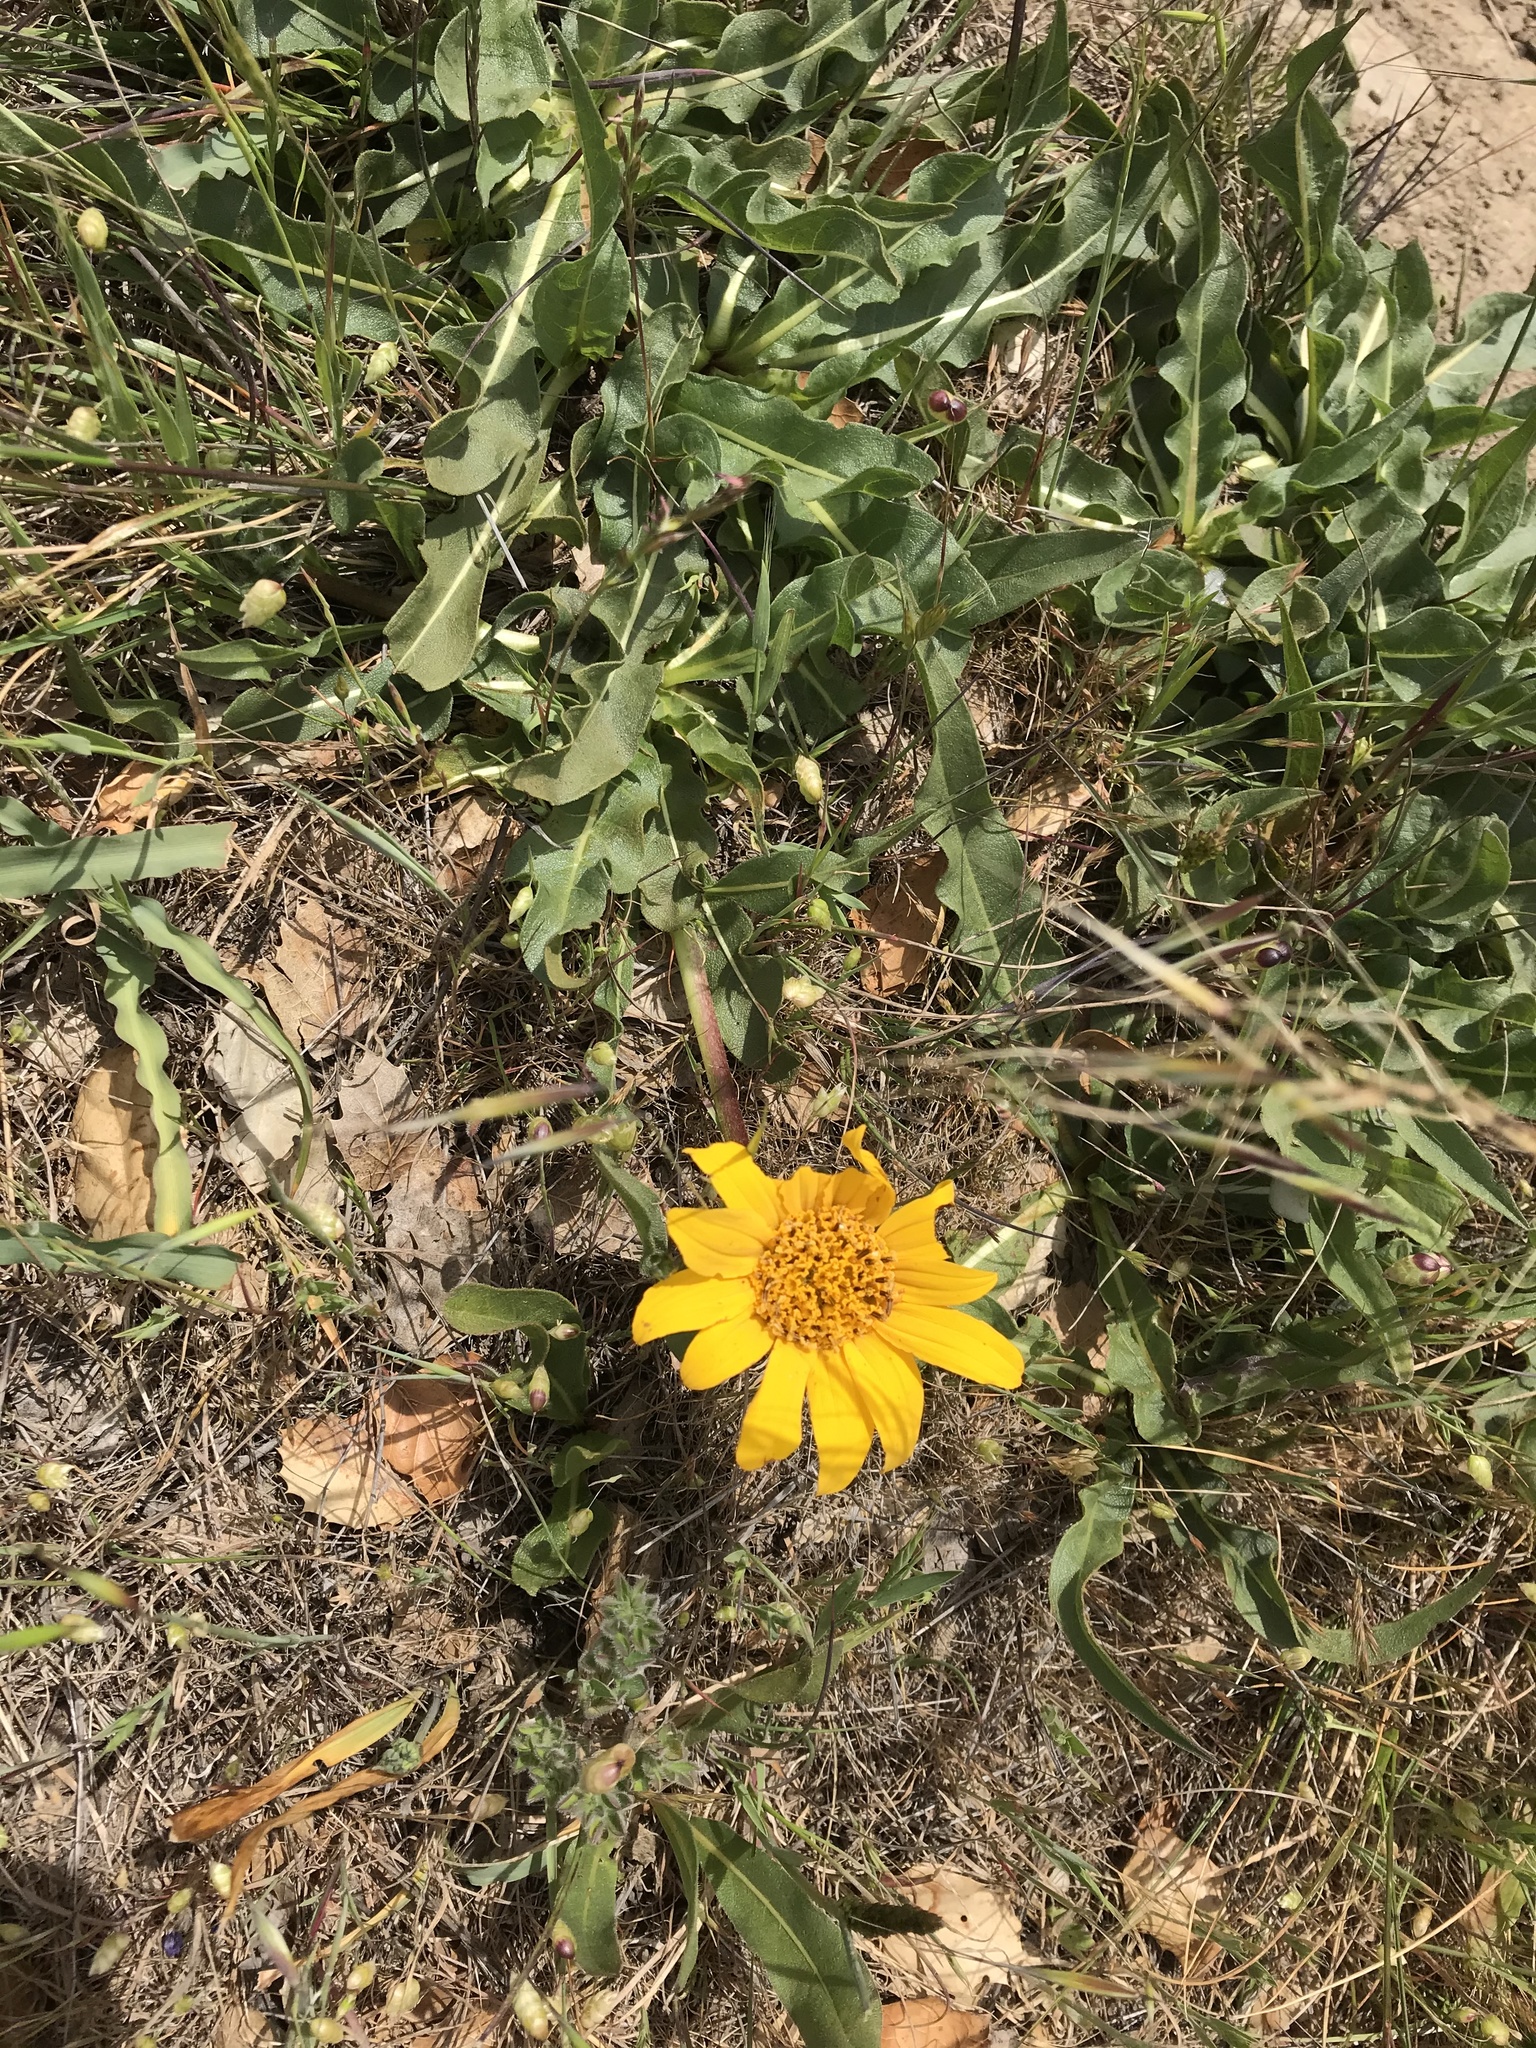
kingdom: Plantae
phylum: Tracheophyta
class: Magnoliopsida
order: Asterales
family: Asteraceae
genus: Wyethia
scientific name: Wyethia angustifolia
